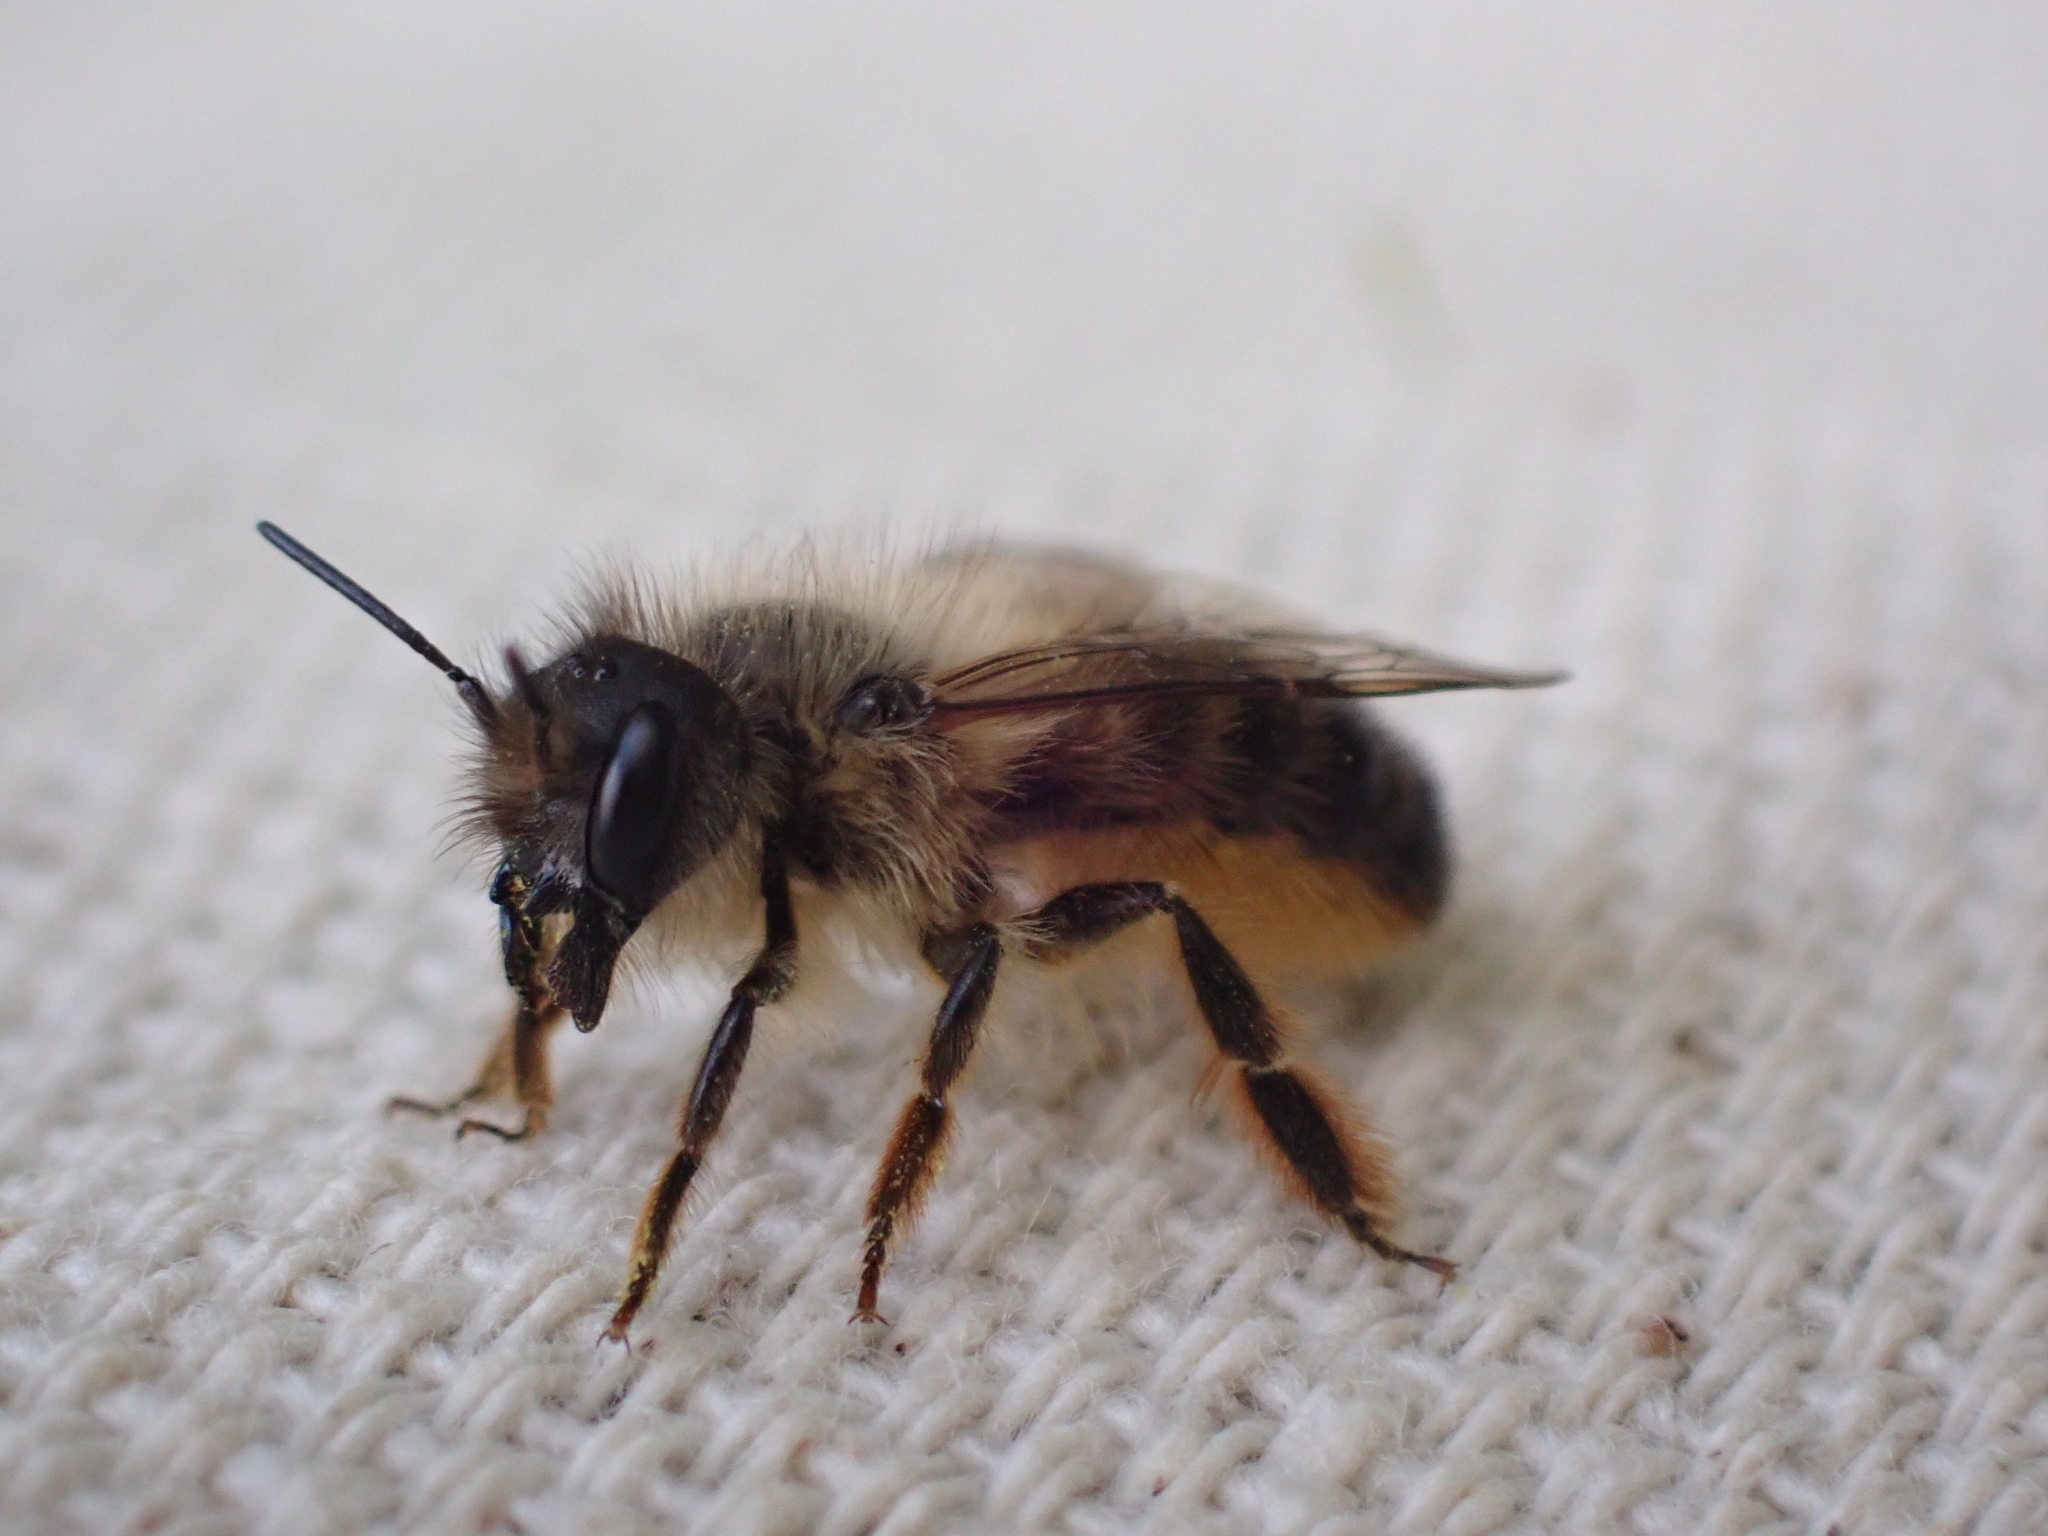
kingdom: Animalia
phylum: Arthropoda
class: Insecta
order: Hymenoptera
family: Megachilidae
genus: Osmia
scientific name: Osmia taurus
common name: Taurus mason bee
